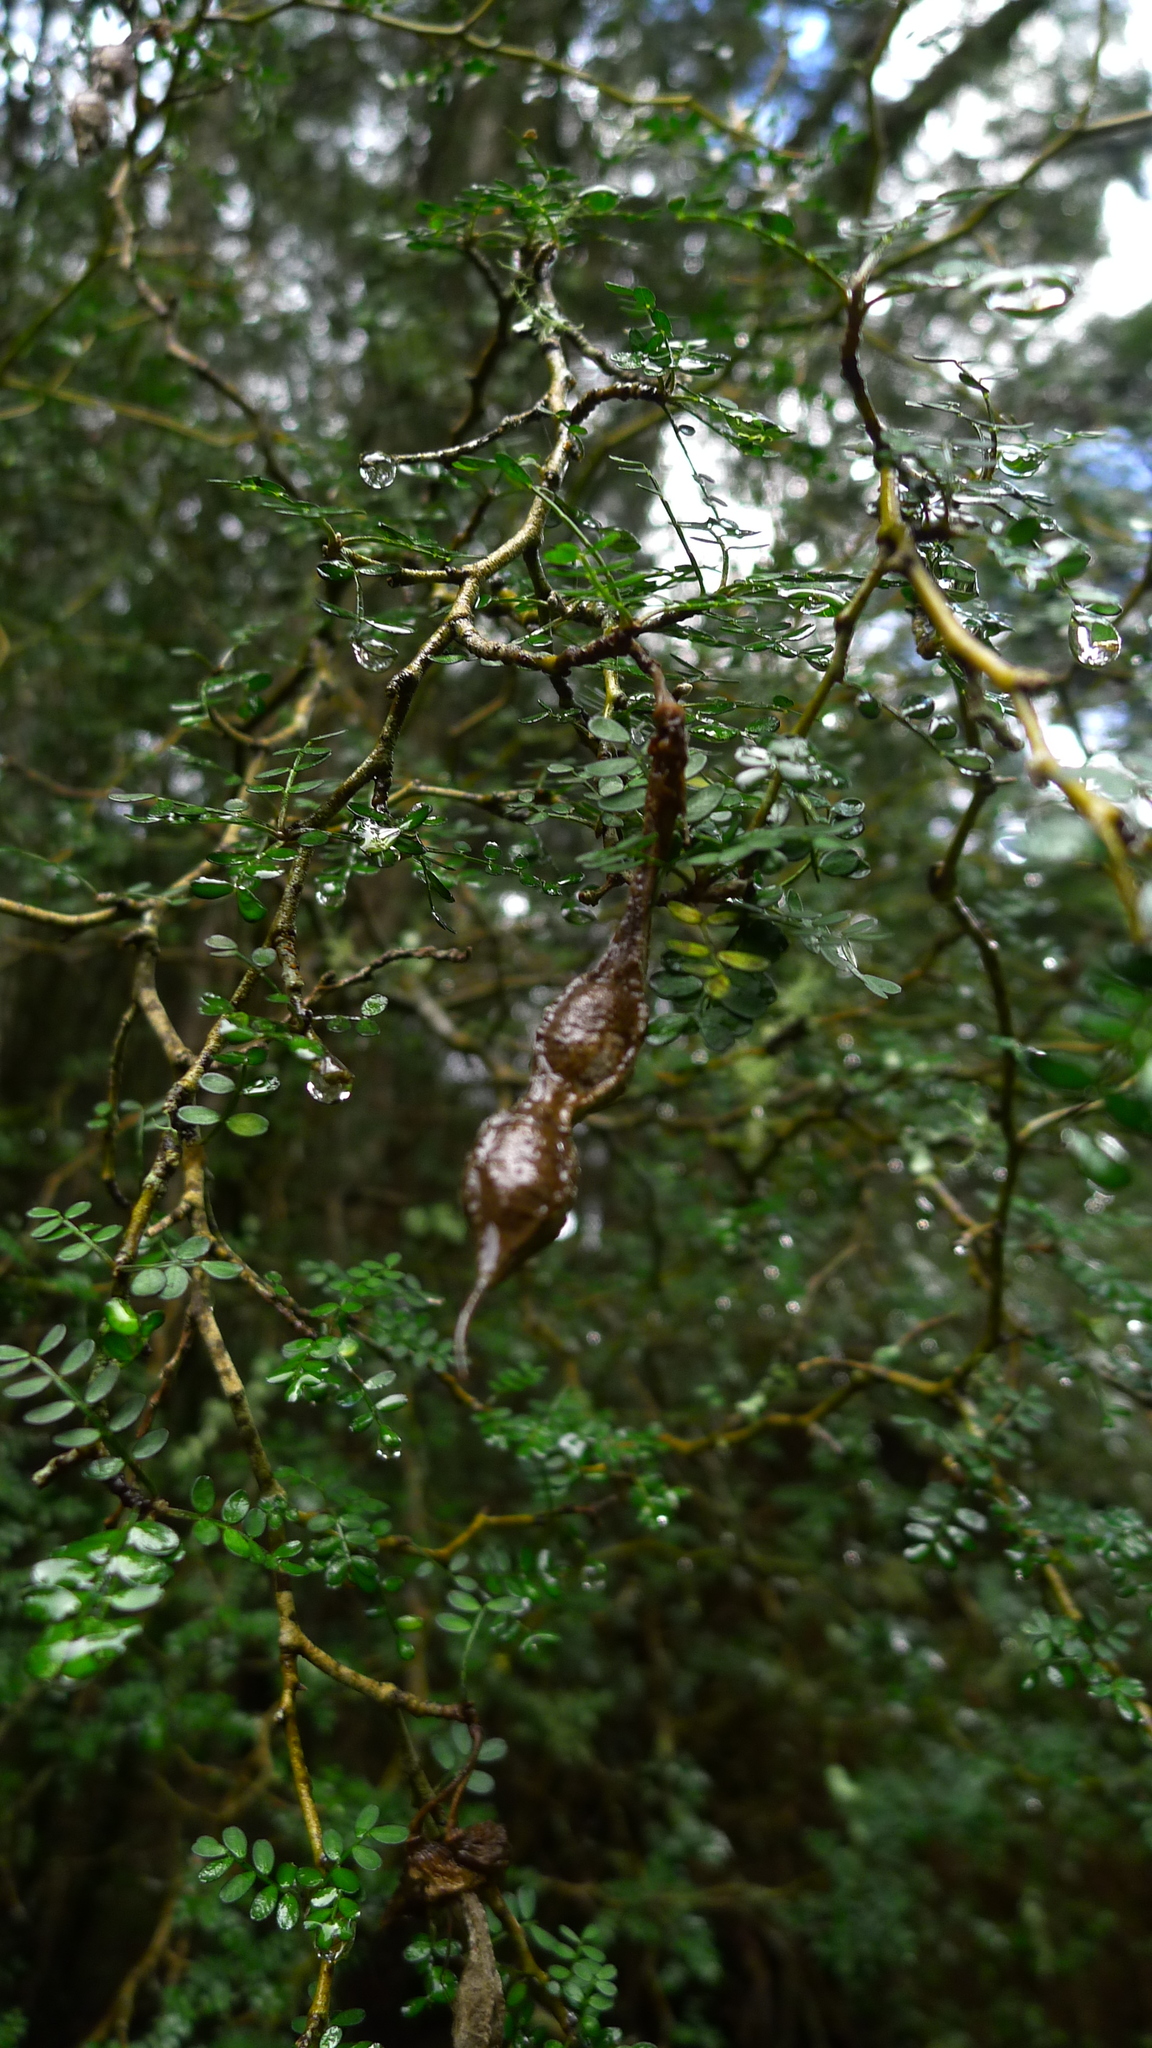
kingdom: Plantae
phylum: Tracheophyta
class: Magnoliopsida
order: Fabales
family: Fabaceae
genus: Sophora
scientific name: Sophora prostrata
